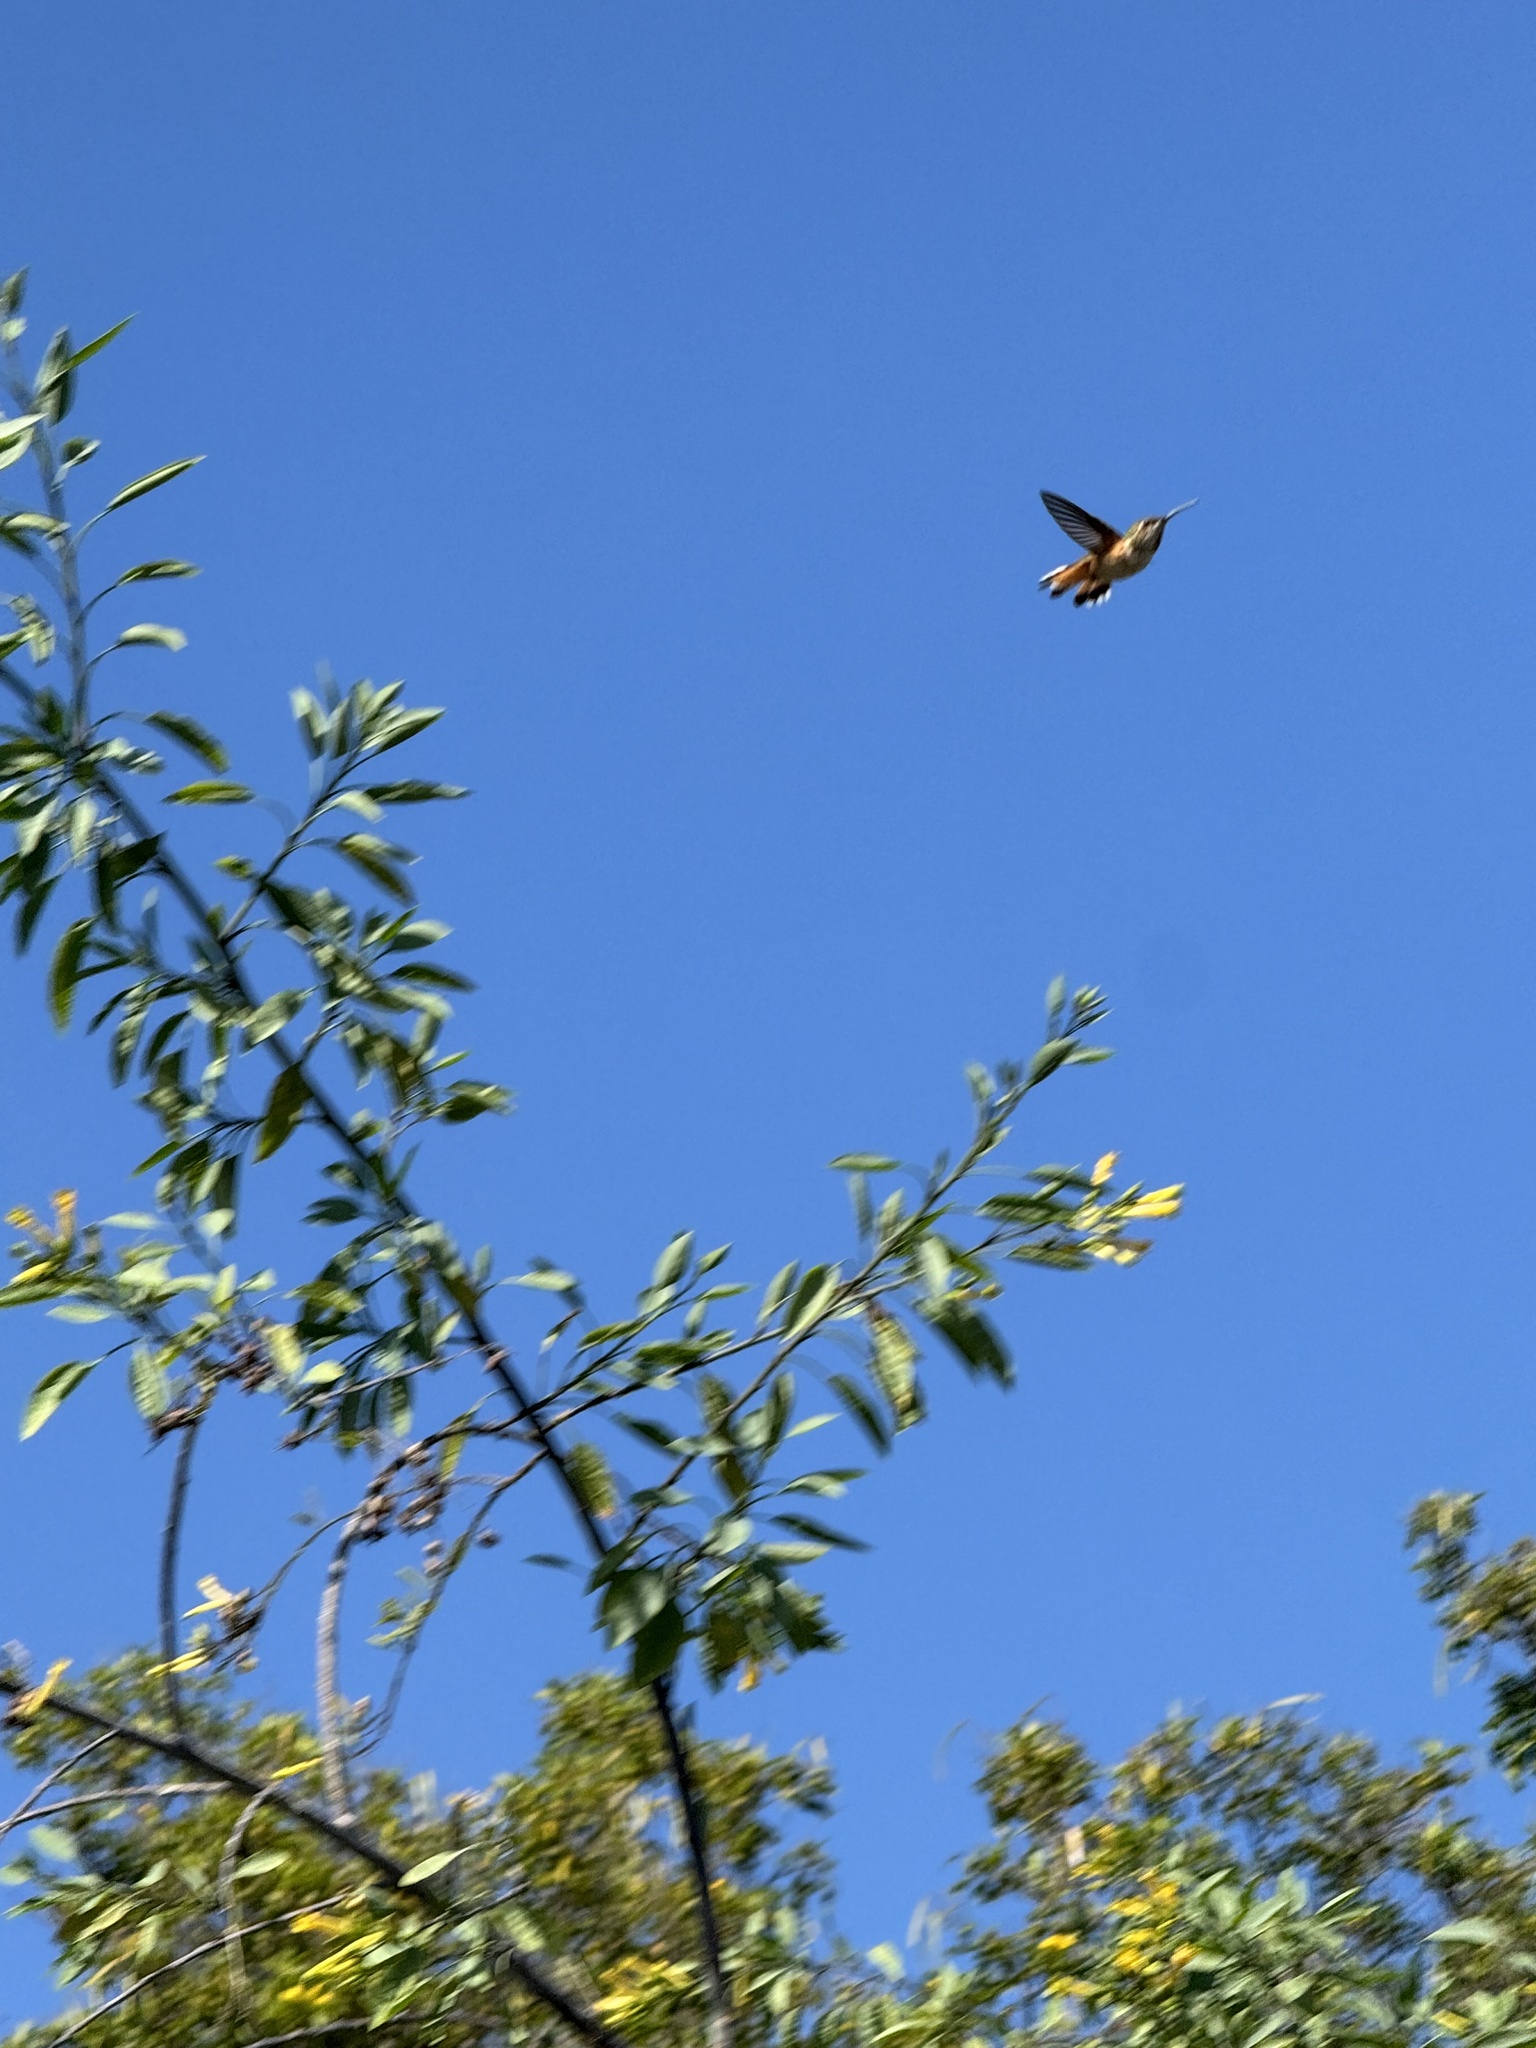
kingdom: Animalia
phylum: Chordata
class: Aves
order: Apodiformes
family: Trochilidae
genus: Selasphorus
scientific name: Selasphorus sasin
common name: Allen's hummingbird
